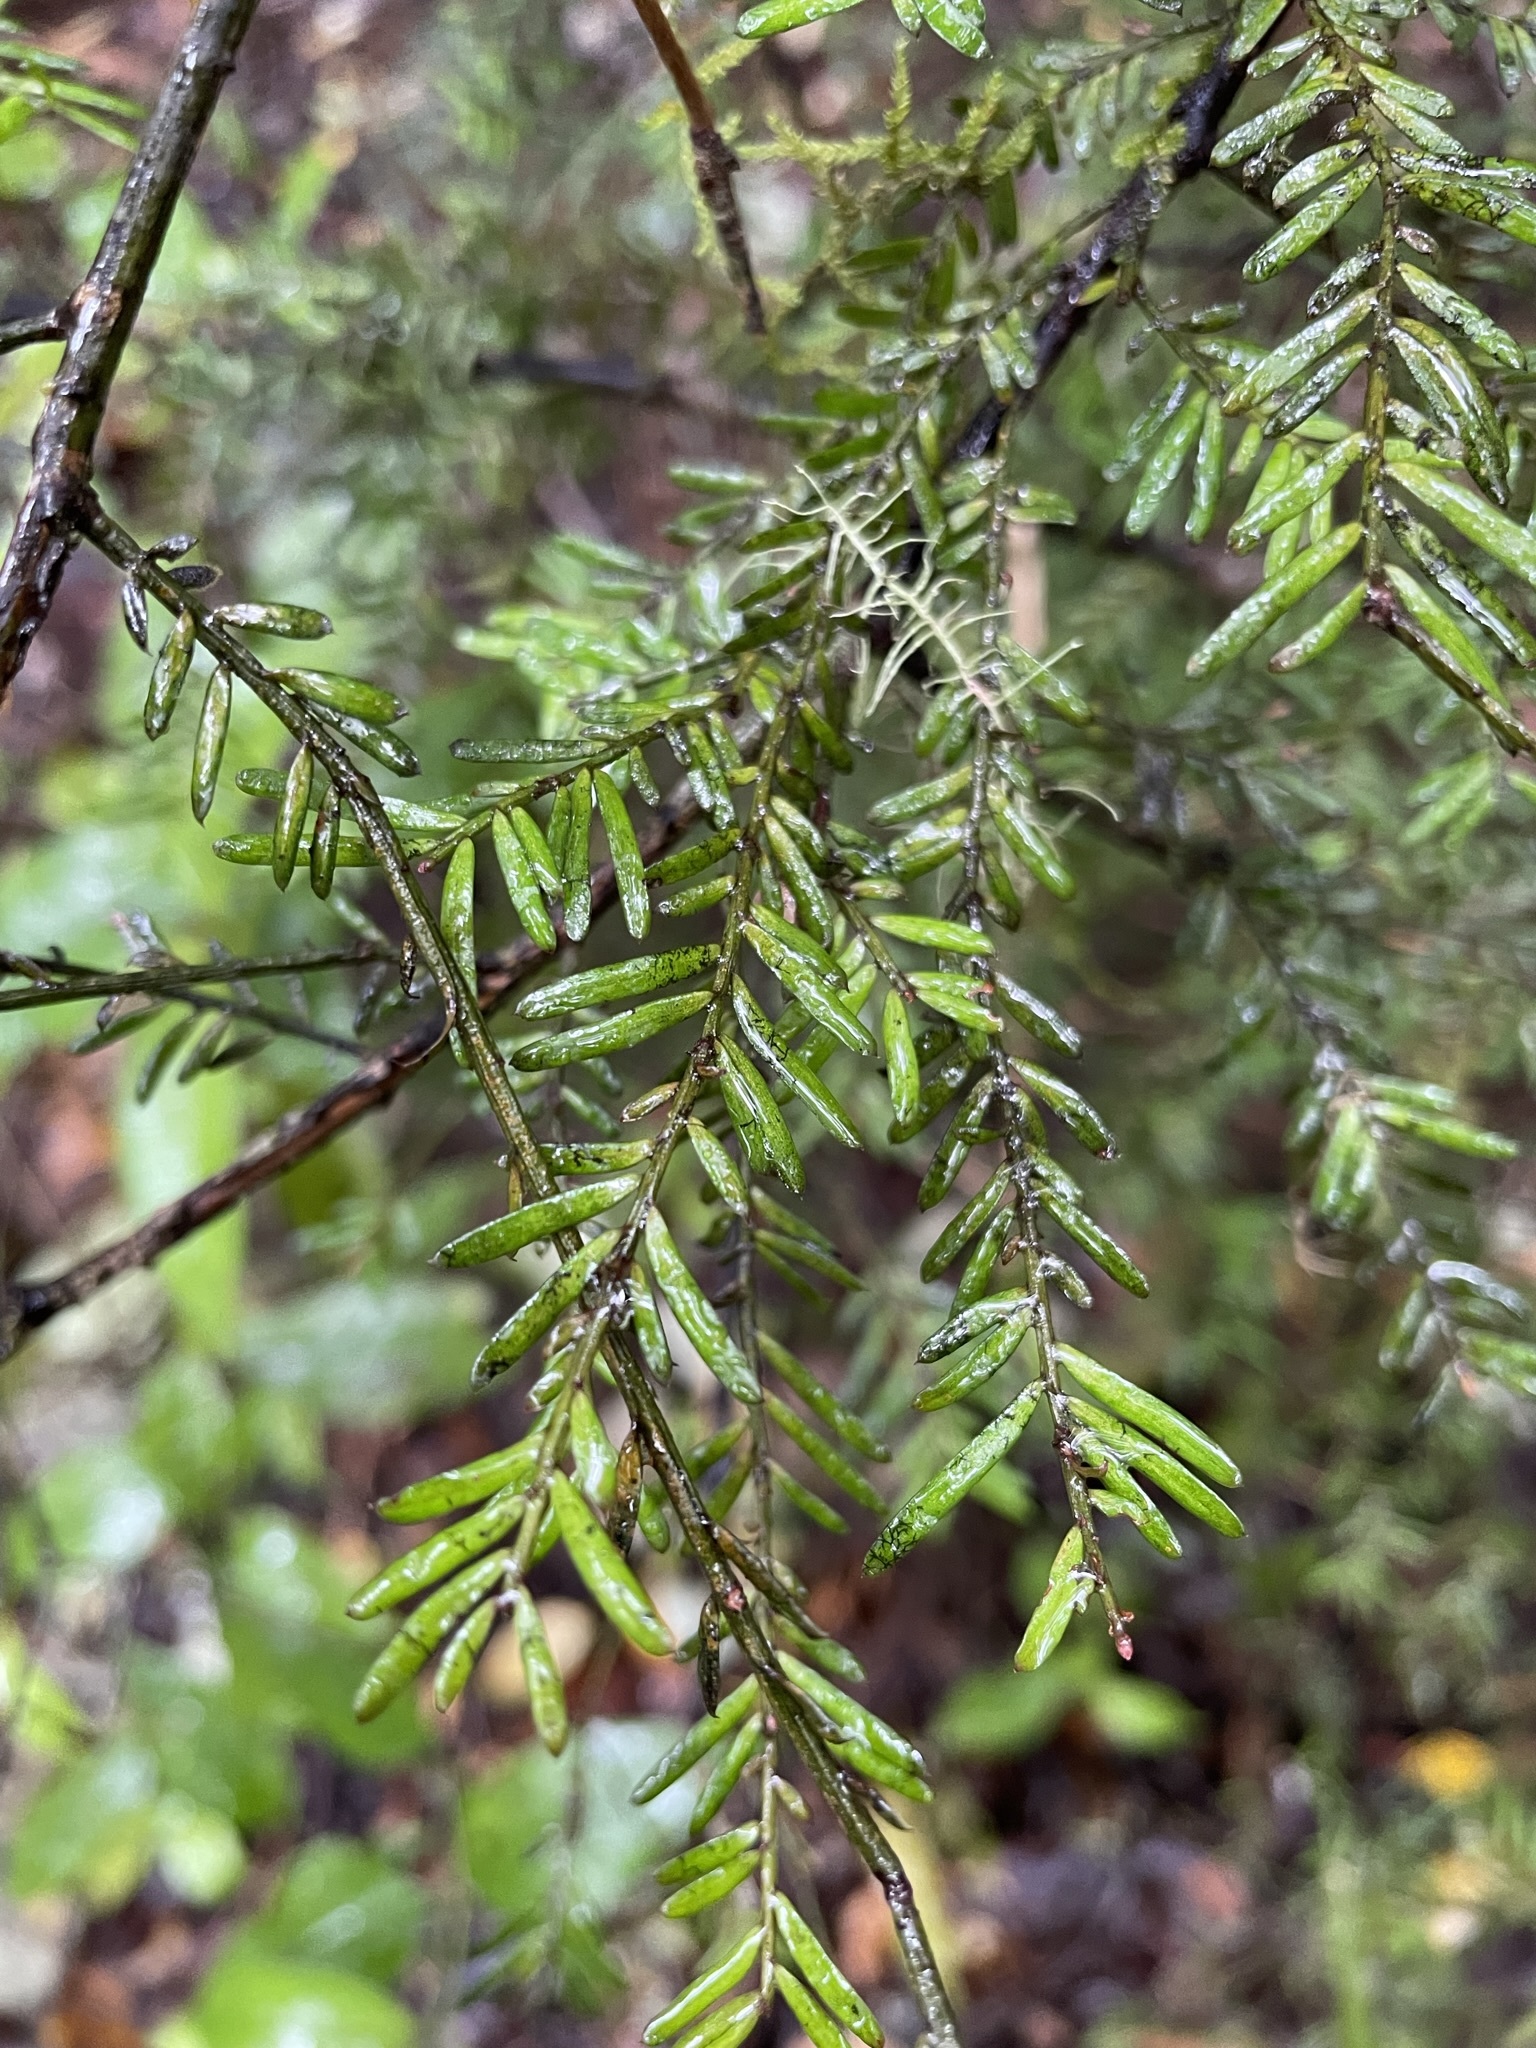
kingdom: Plantae
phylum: Tracheophyta
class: Pinopsida
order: Pinales
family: Podocarpaceae
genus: Prumnopitys
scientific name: Prumnopitys taxifolia
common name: Matai
